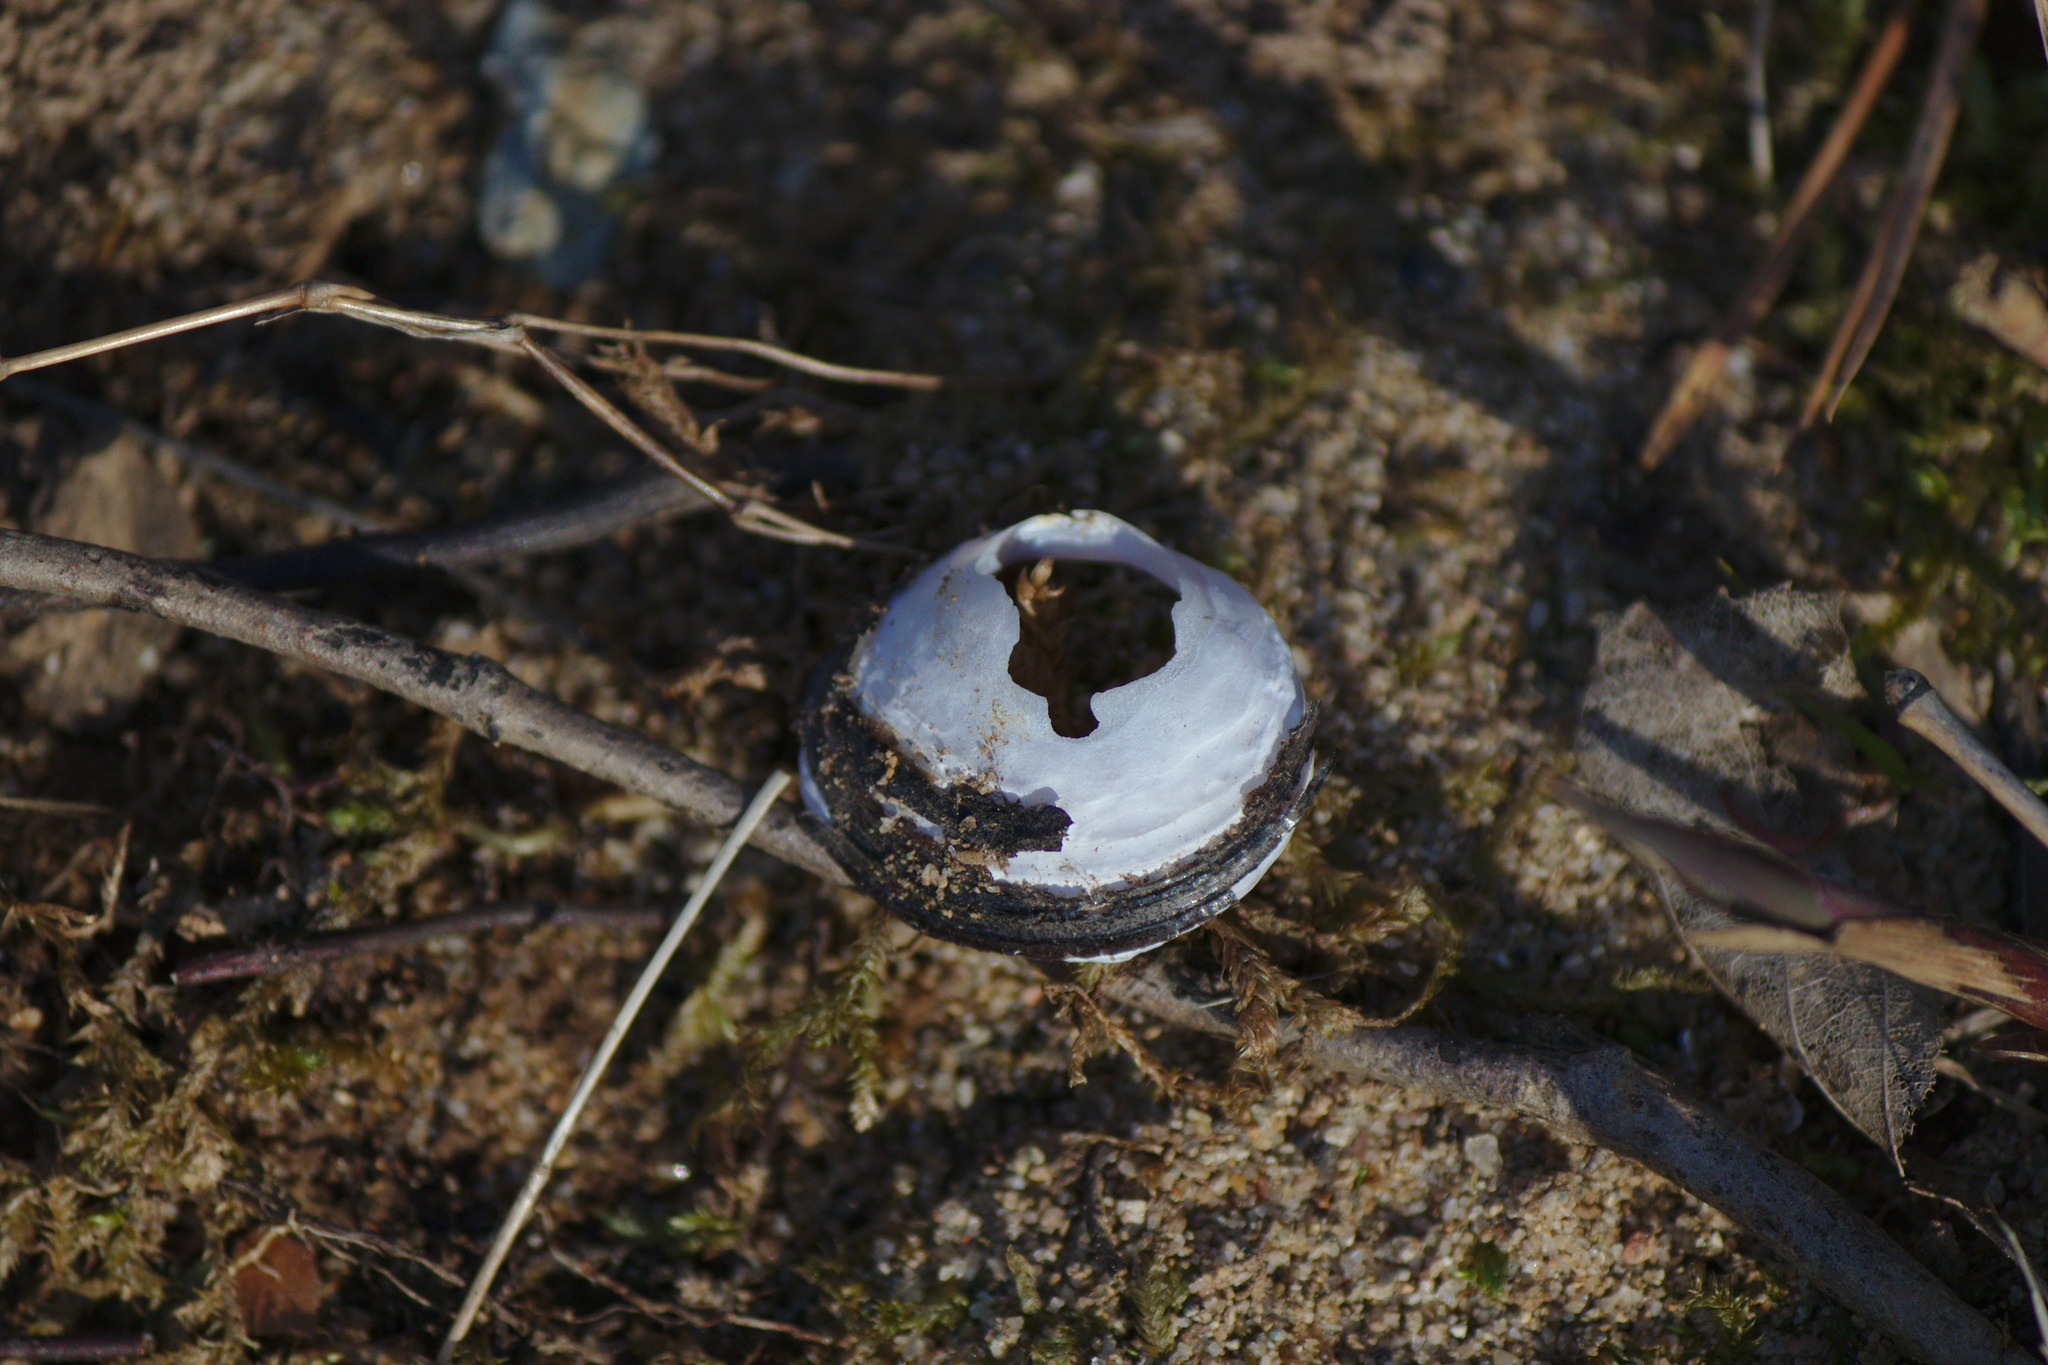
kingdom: Animalia
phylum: Mollusca
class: Bivalvia
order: Venerida
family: Cyrenidae
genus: Corbicula
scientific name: Corbicula fluminea
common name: Asian clam
